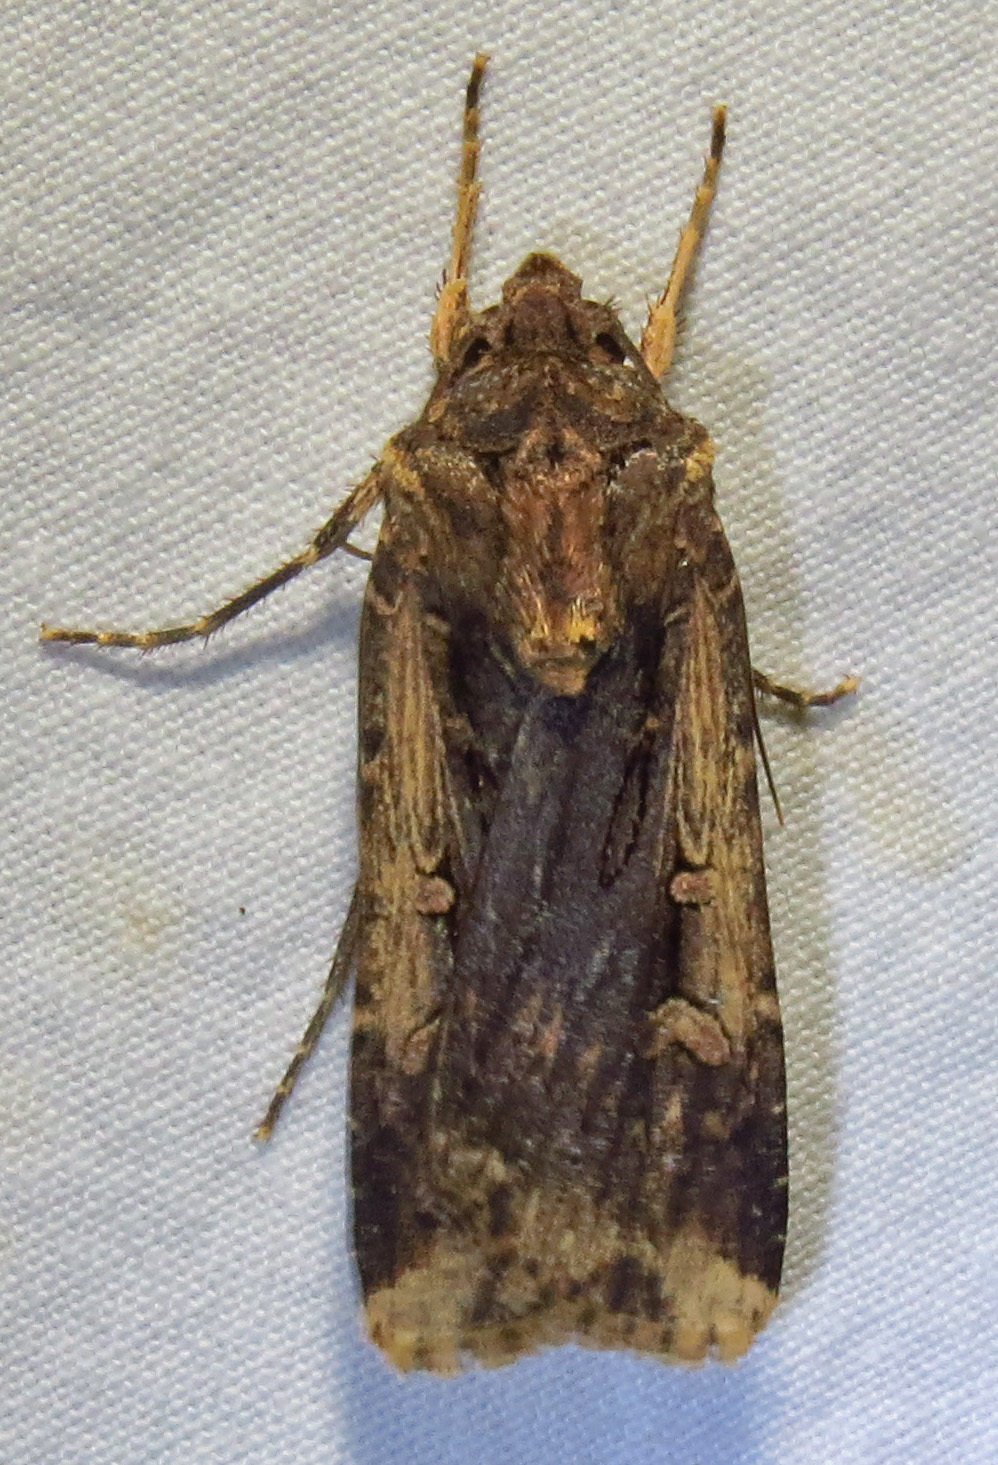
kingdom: Animalia
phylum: Arthropoda
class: Insecta
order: Lepidoptera
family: Noctuidae
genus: Feltia
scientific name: Feltia subterranea
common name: Granulate cutworm
